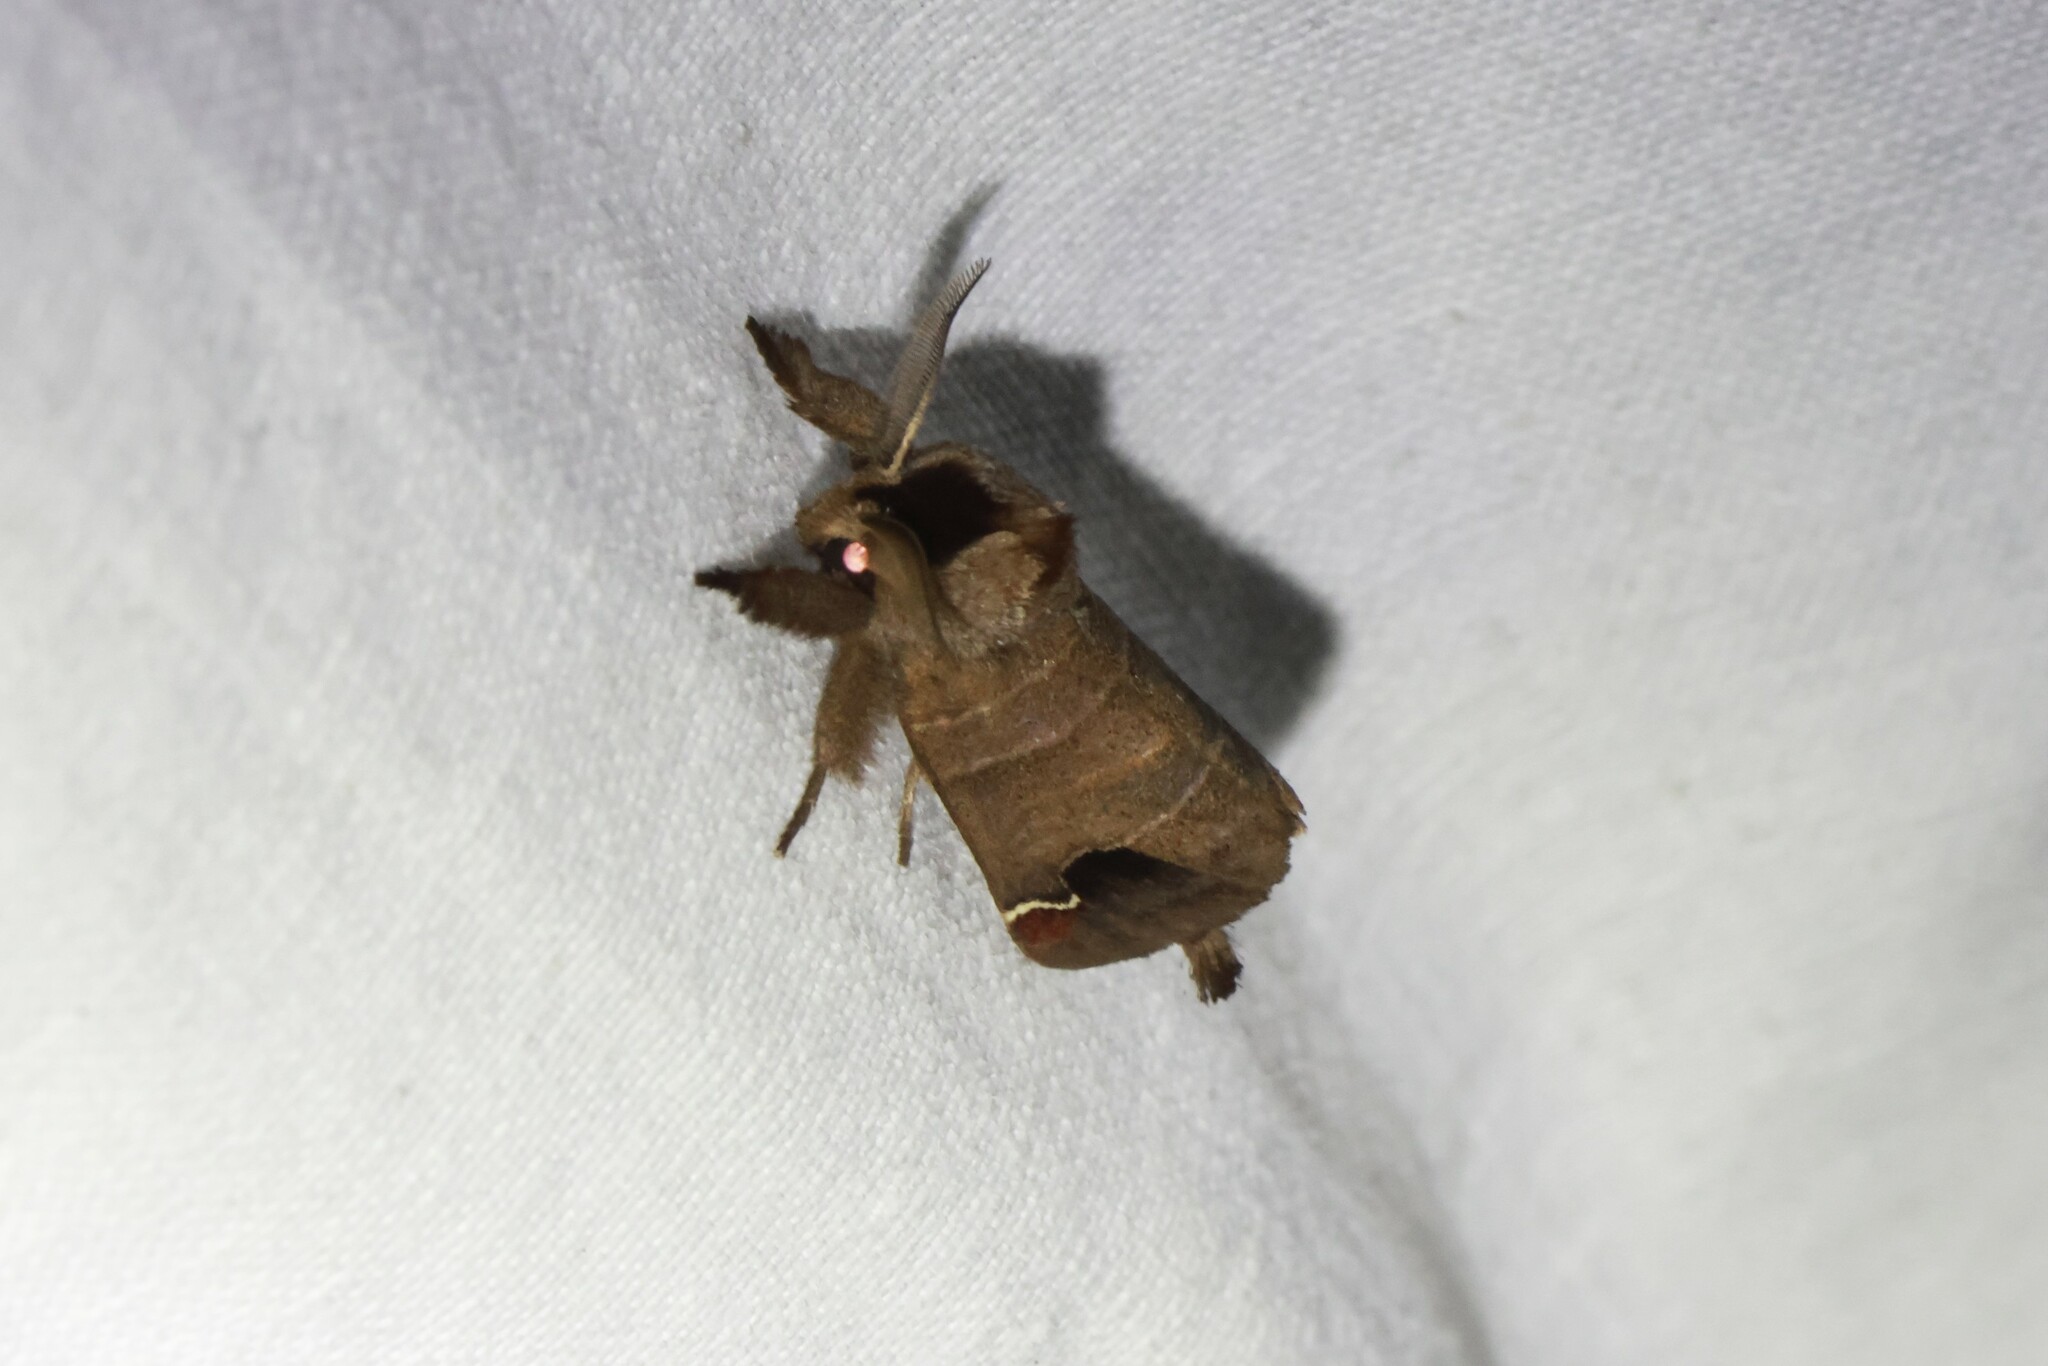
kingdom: Animalia
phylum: Arthropoda
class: Insecta
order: Lepidoptera
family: Notodontidae
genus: Clostera
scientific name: Clostera albosigma
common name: Sigmoid prominent
